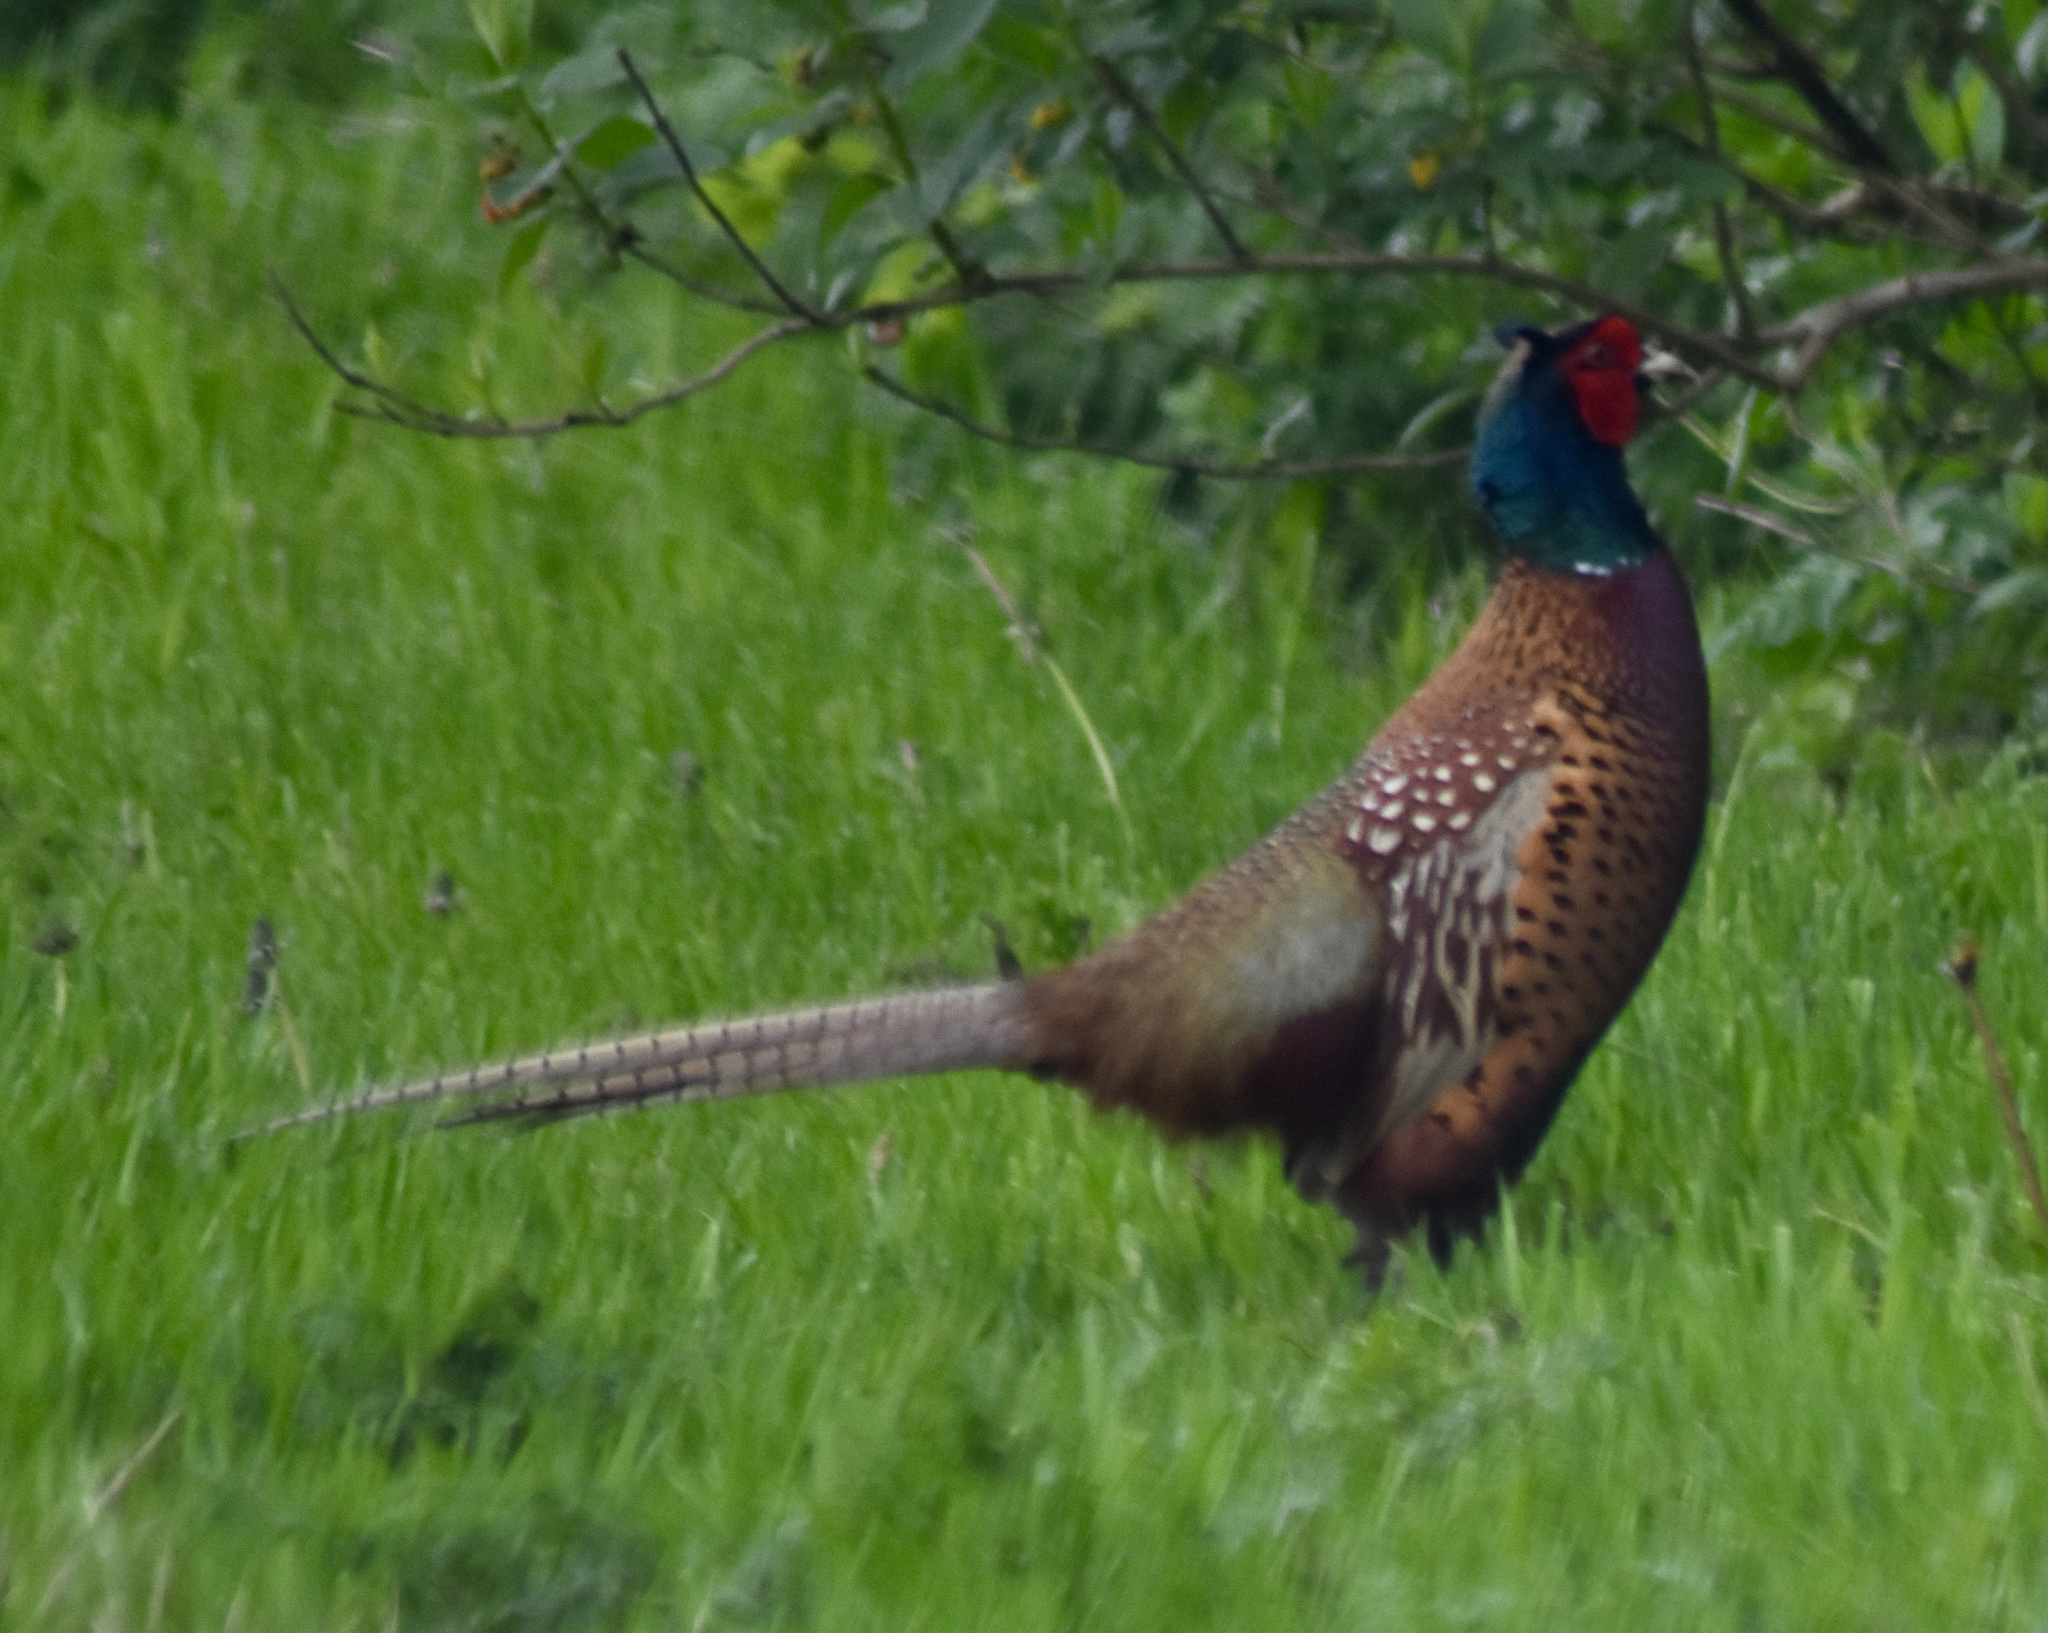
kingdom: Animalia
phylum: Chordata
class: Aves
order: Galliformes
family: Phasianidae
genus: Phasianus
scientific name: Phasianus colchicus
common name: Common pheasant
